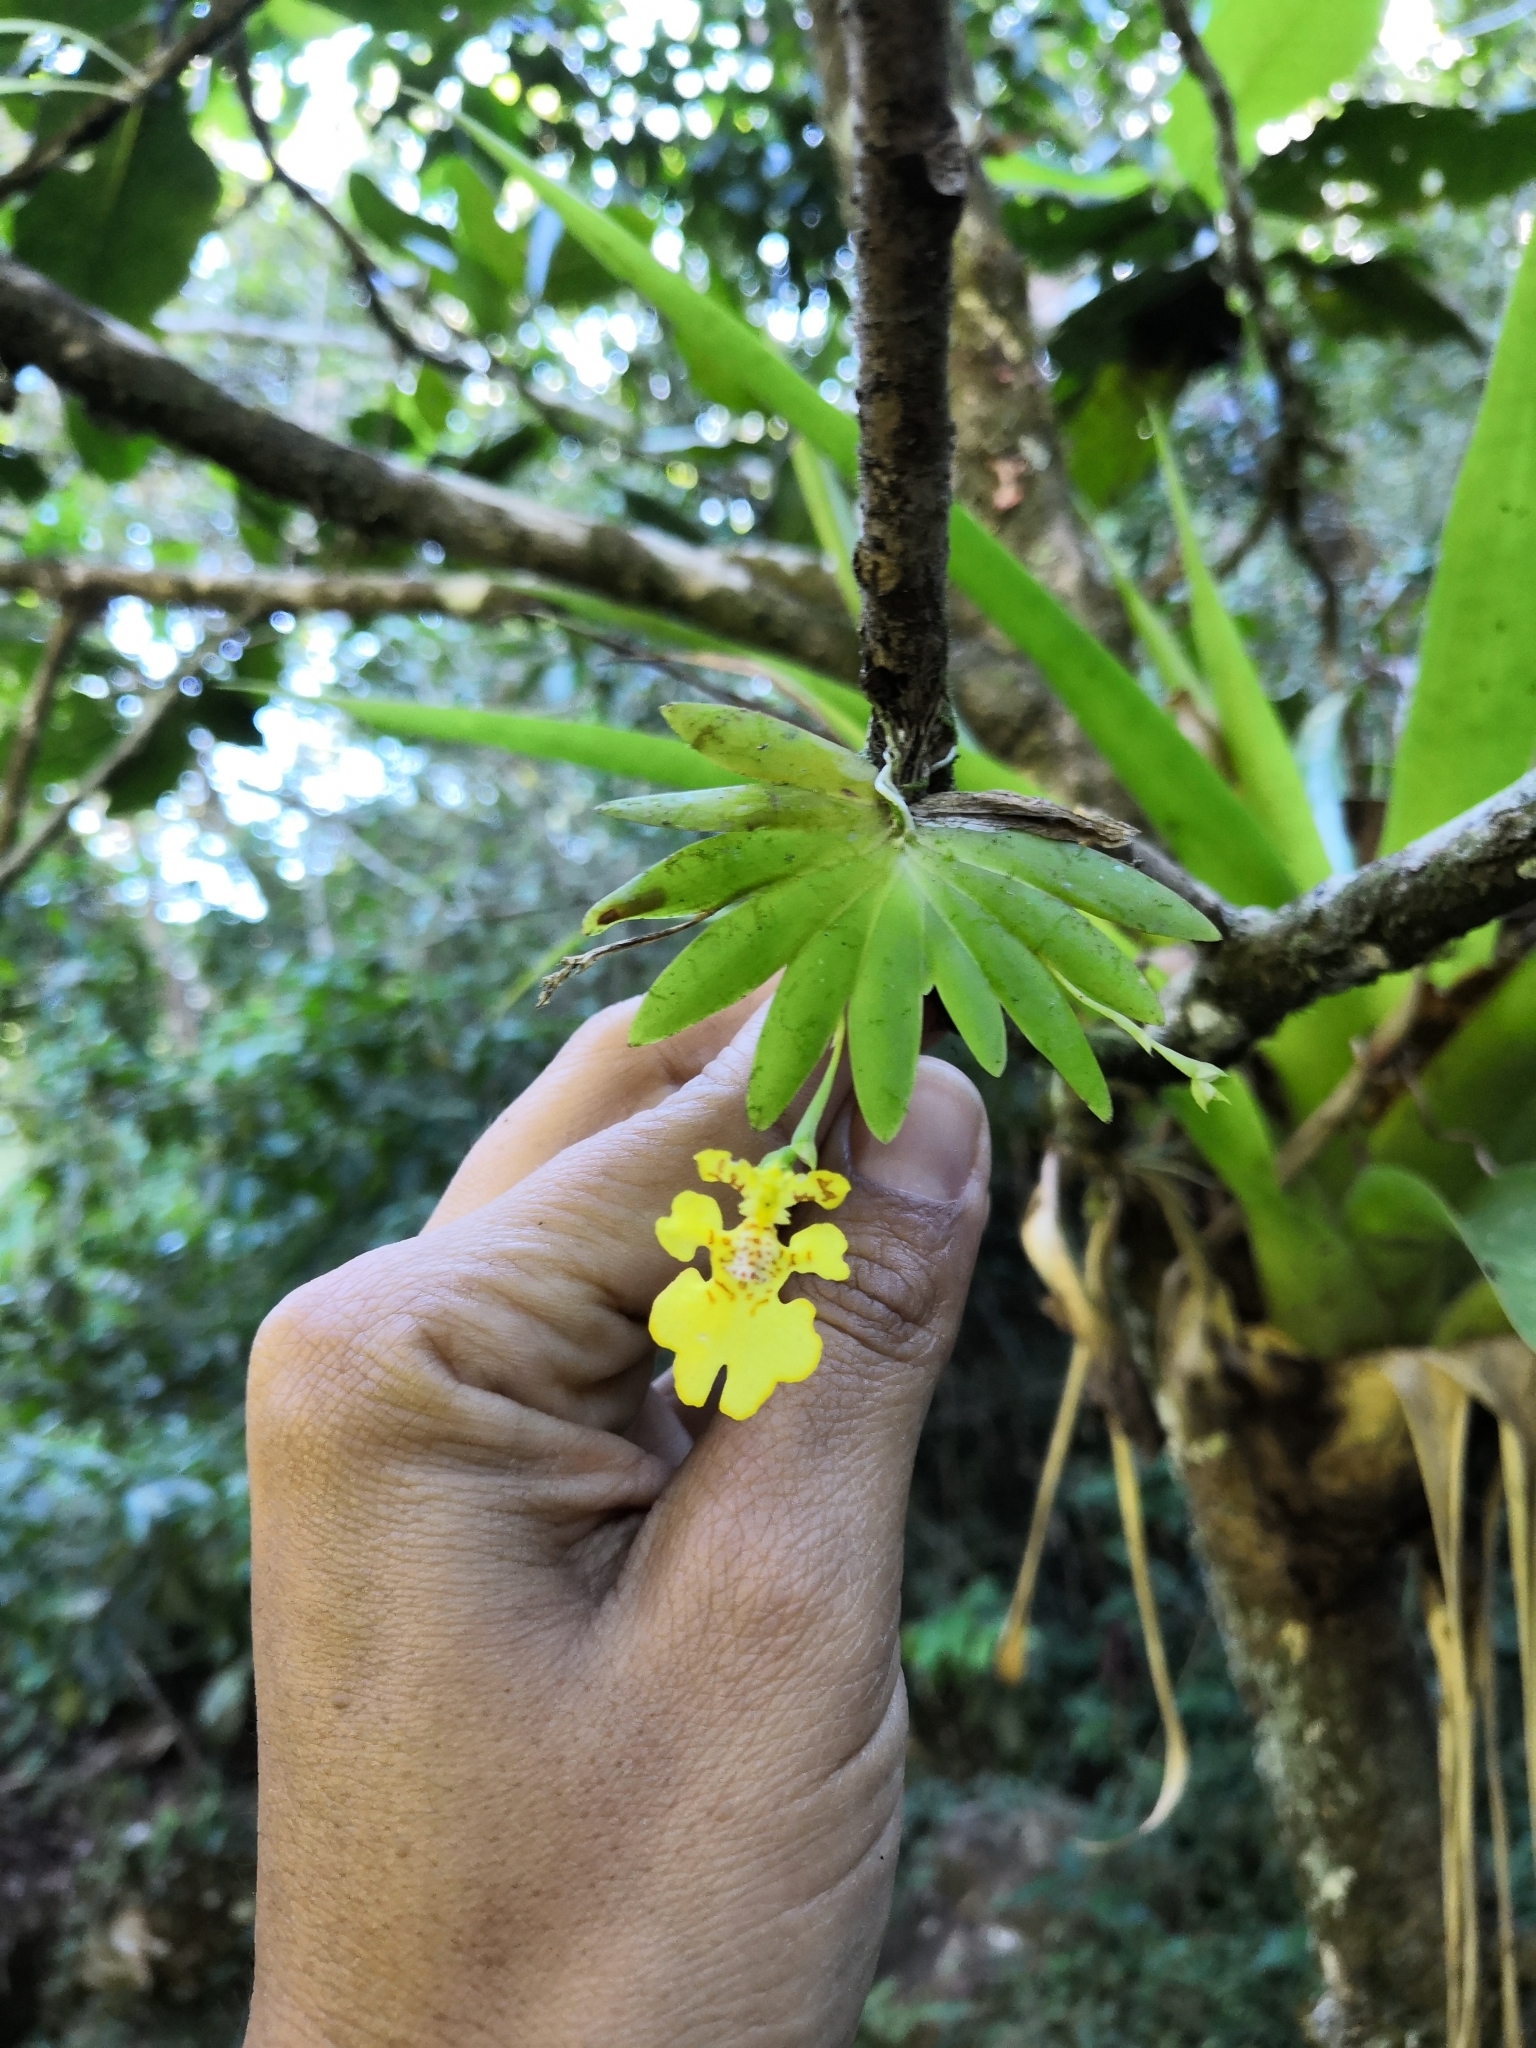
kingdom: Plantae
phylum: Tracheophyta
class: Liliopsida
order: Asparagales
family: Orchidaceae
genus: Erycina
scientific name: Erycina pusilla
